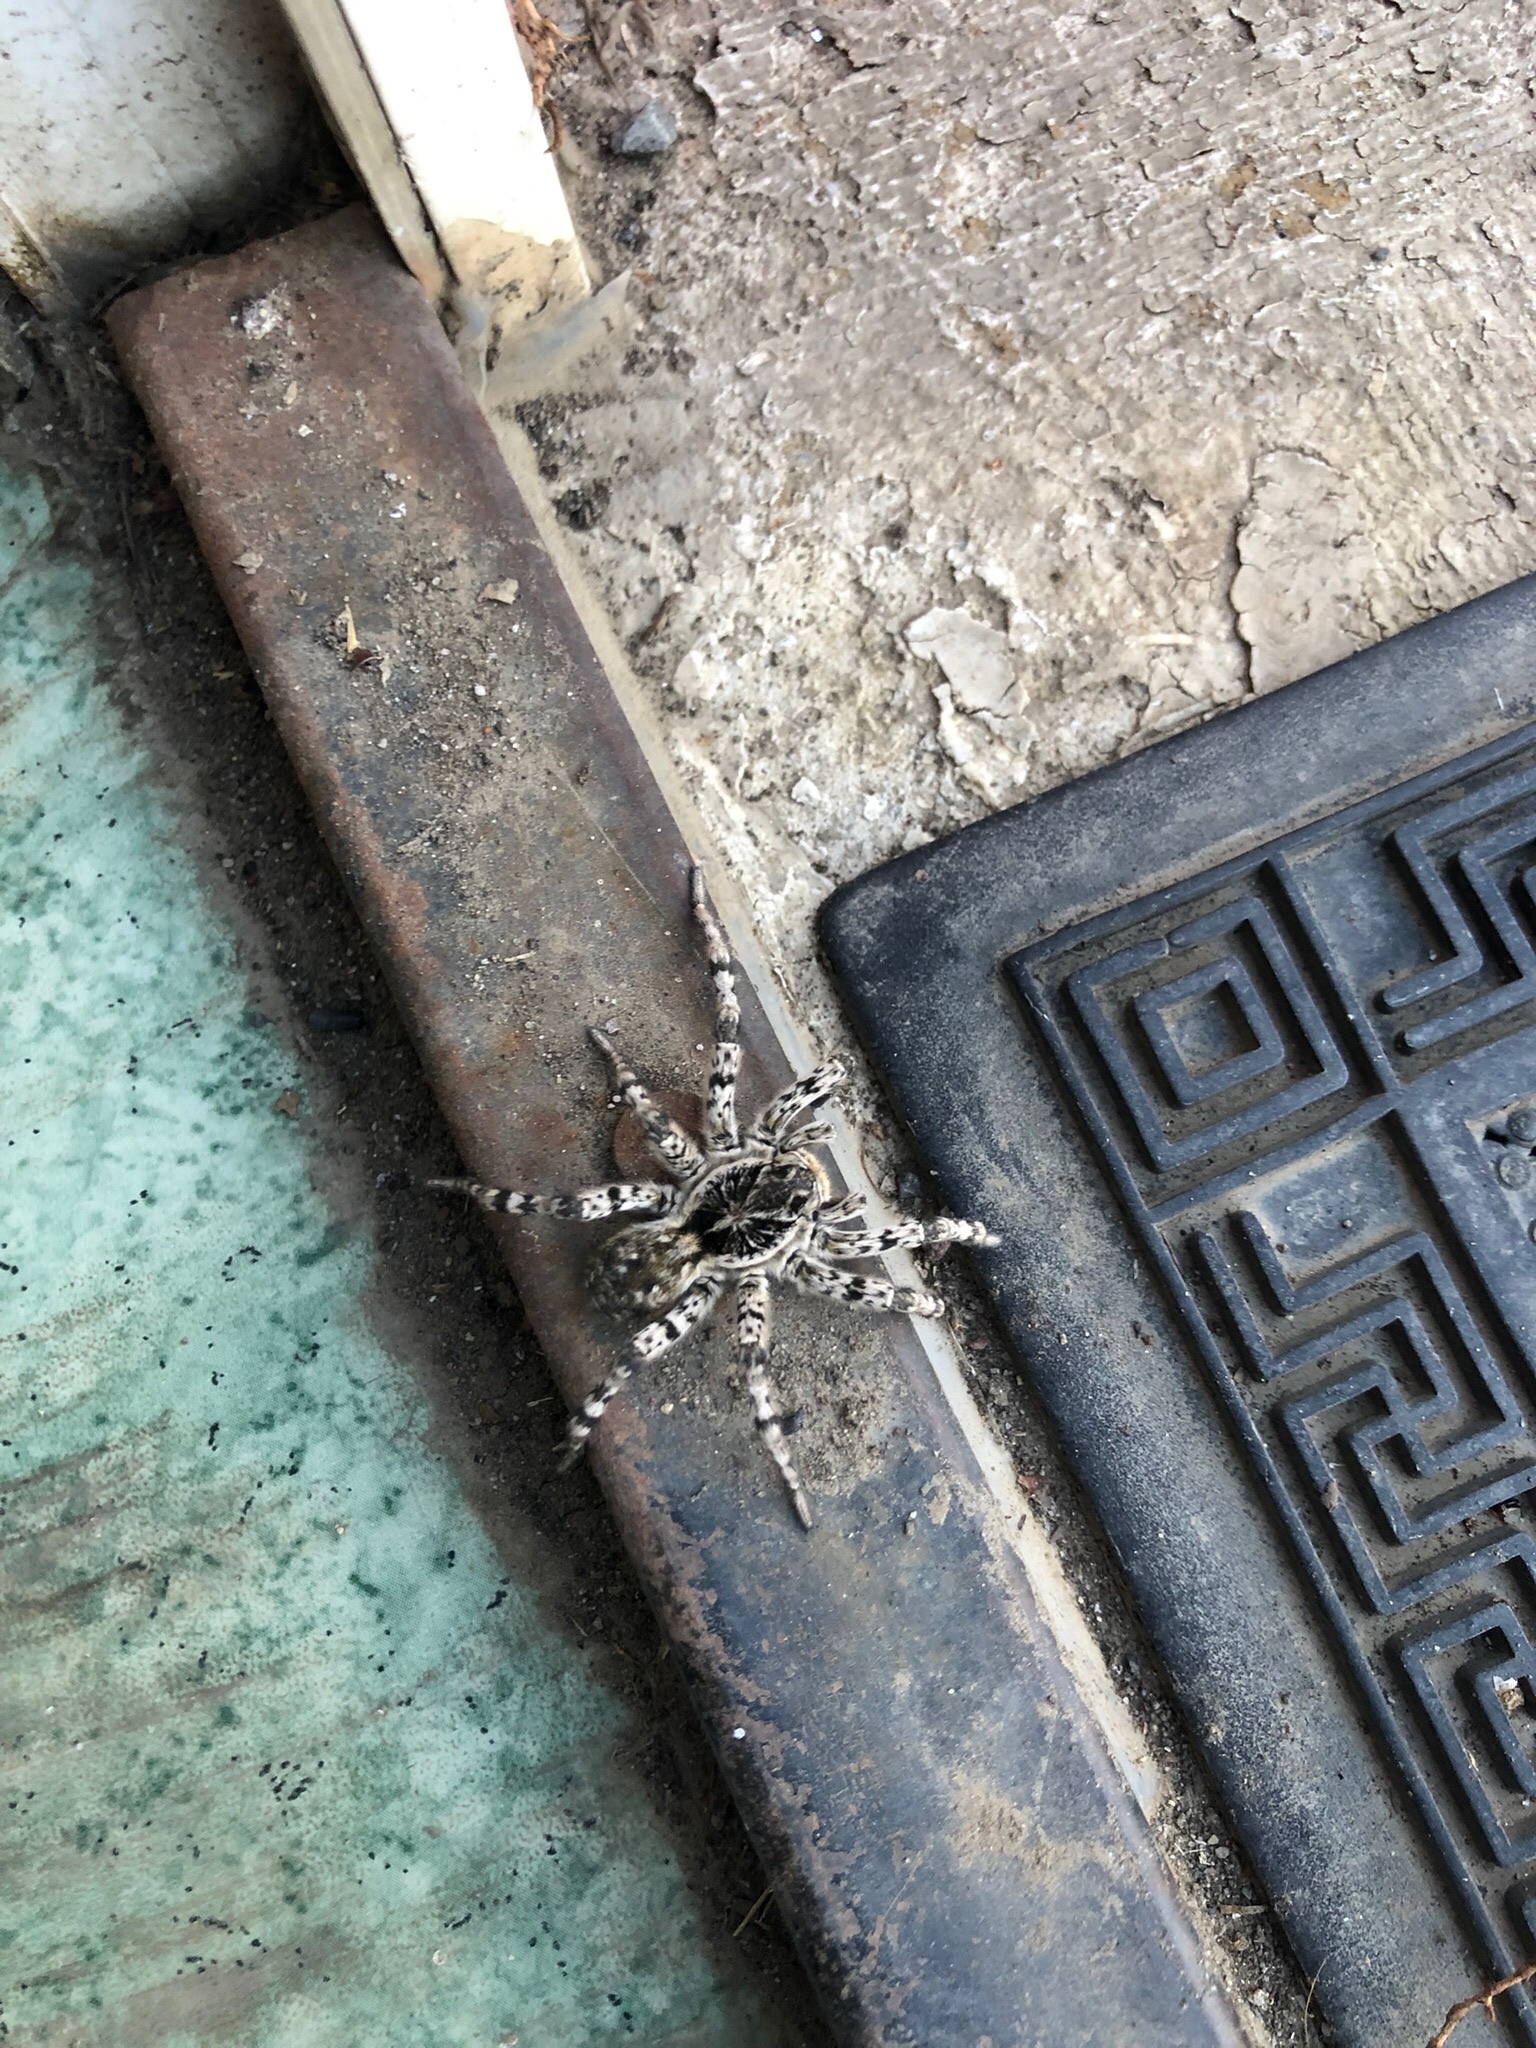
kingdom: Animalia
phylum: Arthropoda
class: Arachnida
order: Araneae
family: Lycosidae
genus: Lycosa
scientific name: Lycosa singoriensis
